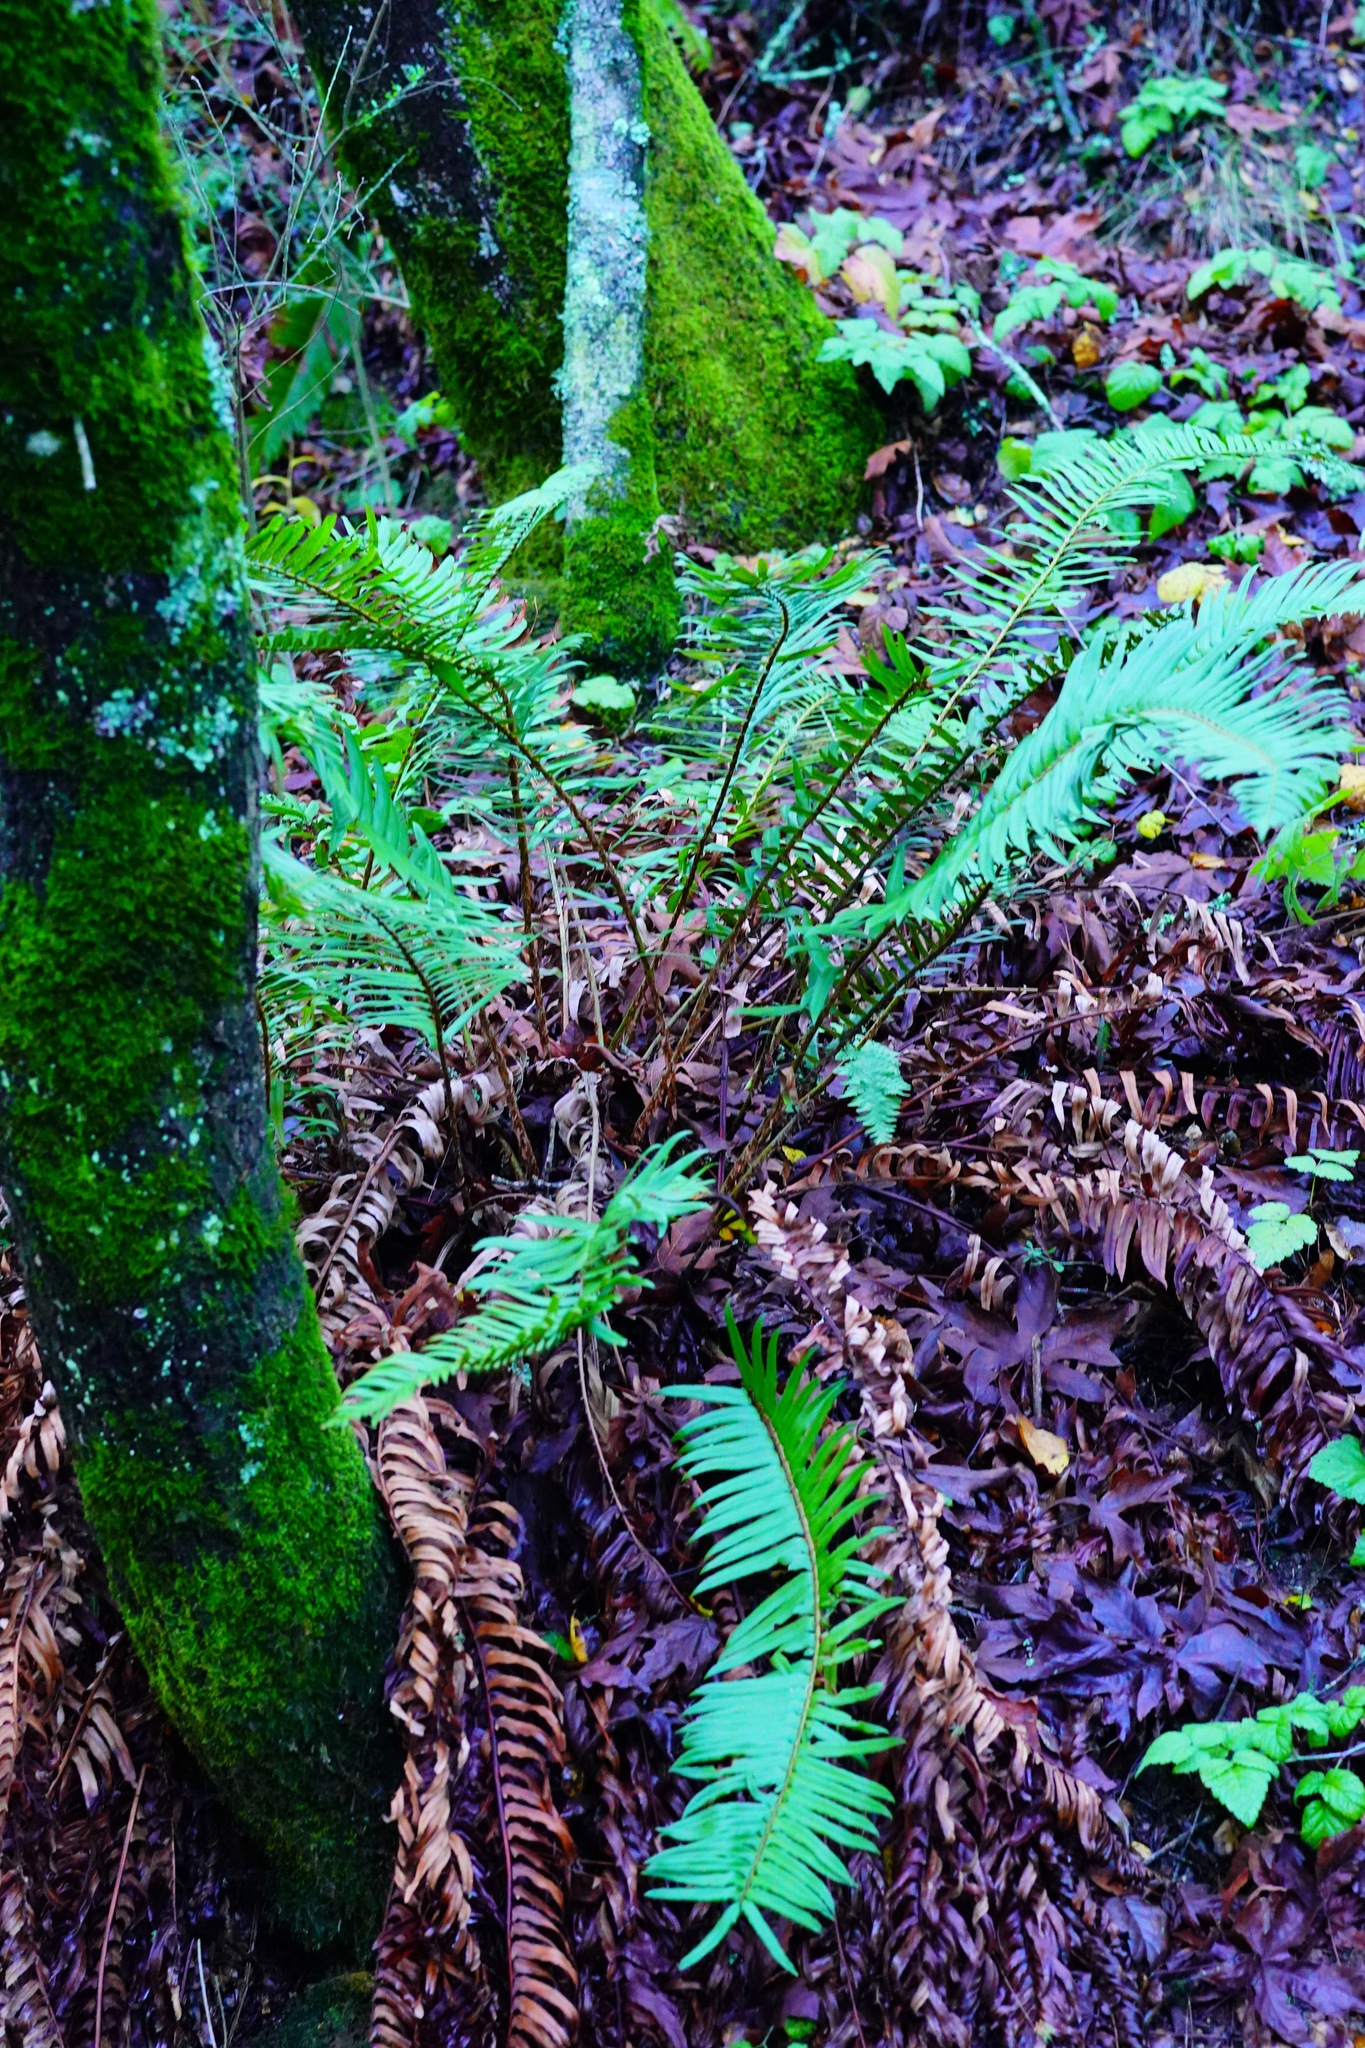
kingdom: Plantae
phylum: Tracheophyta
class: Polypodiopsida
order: Polypodiales
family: Dryopteridaceae
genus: Polystichum
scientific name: Polystichum munitum
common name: Western sword-fern
